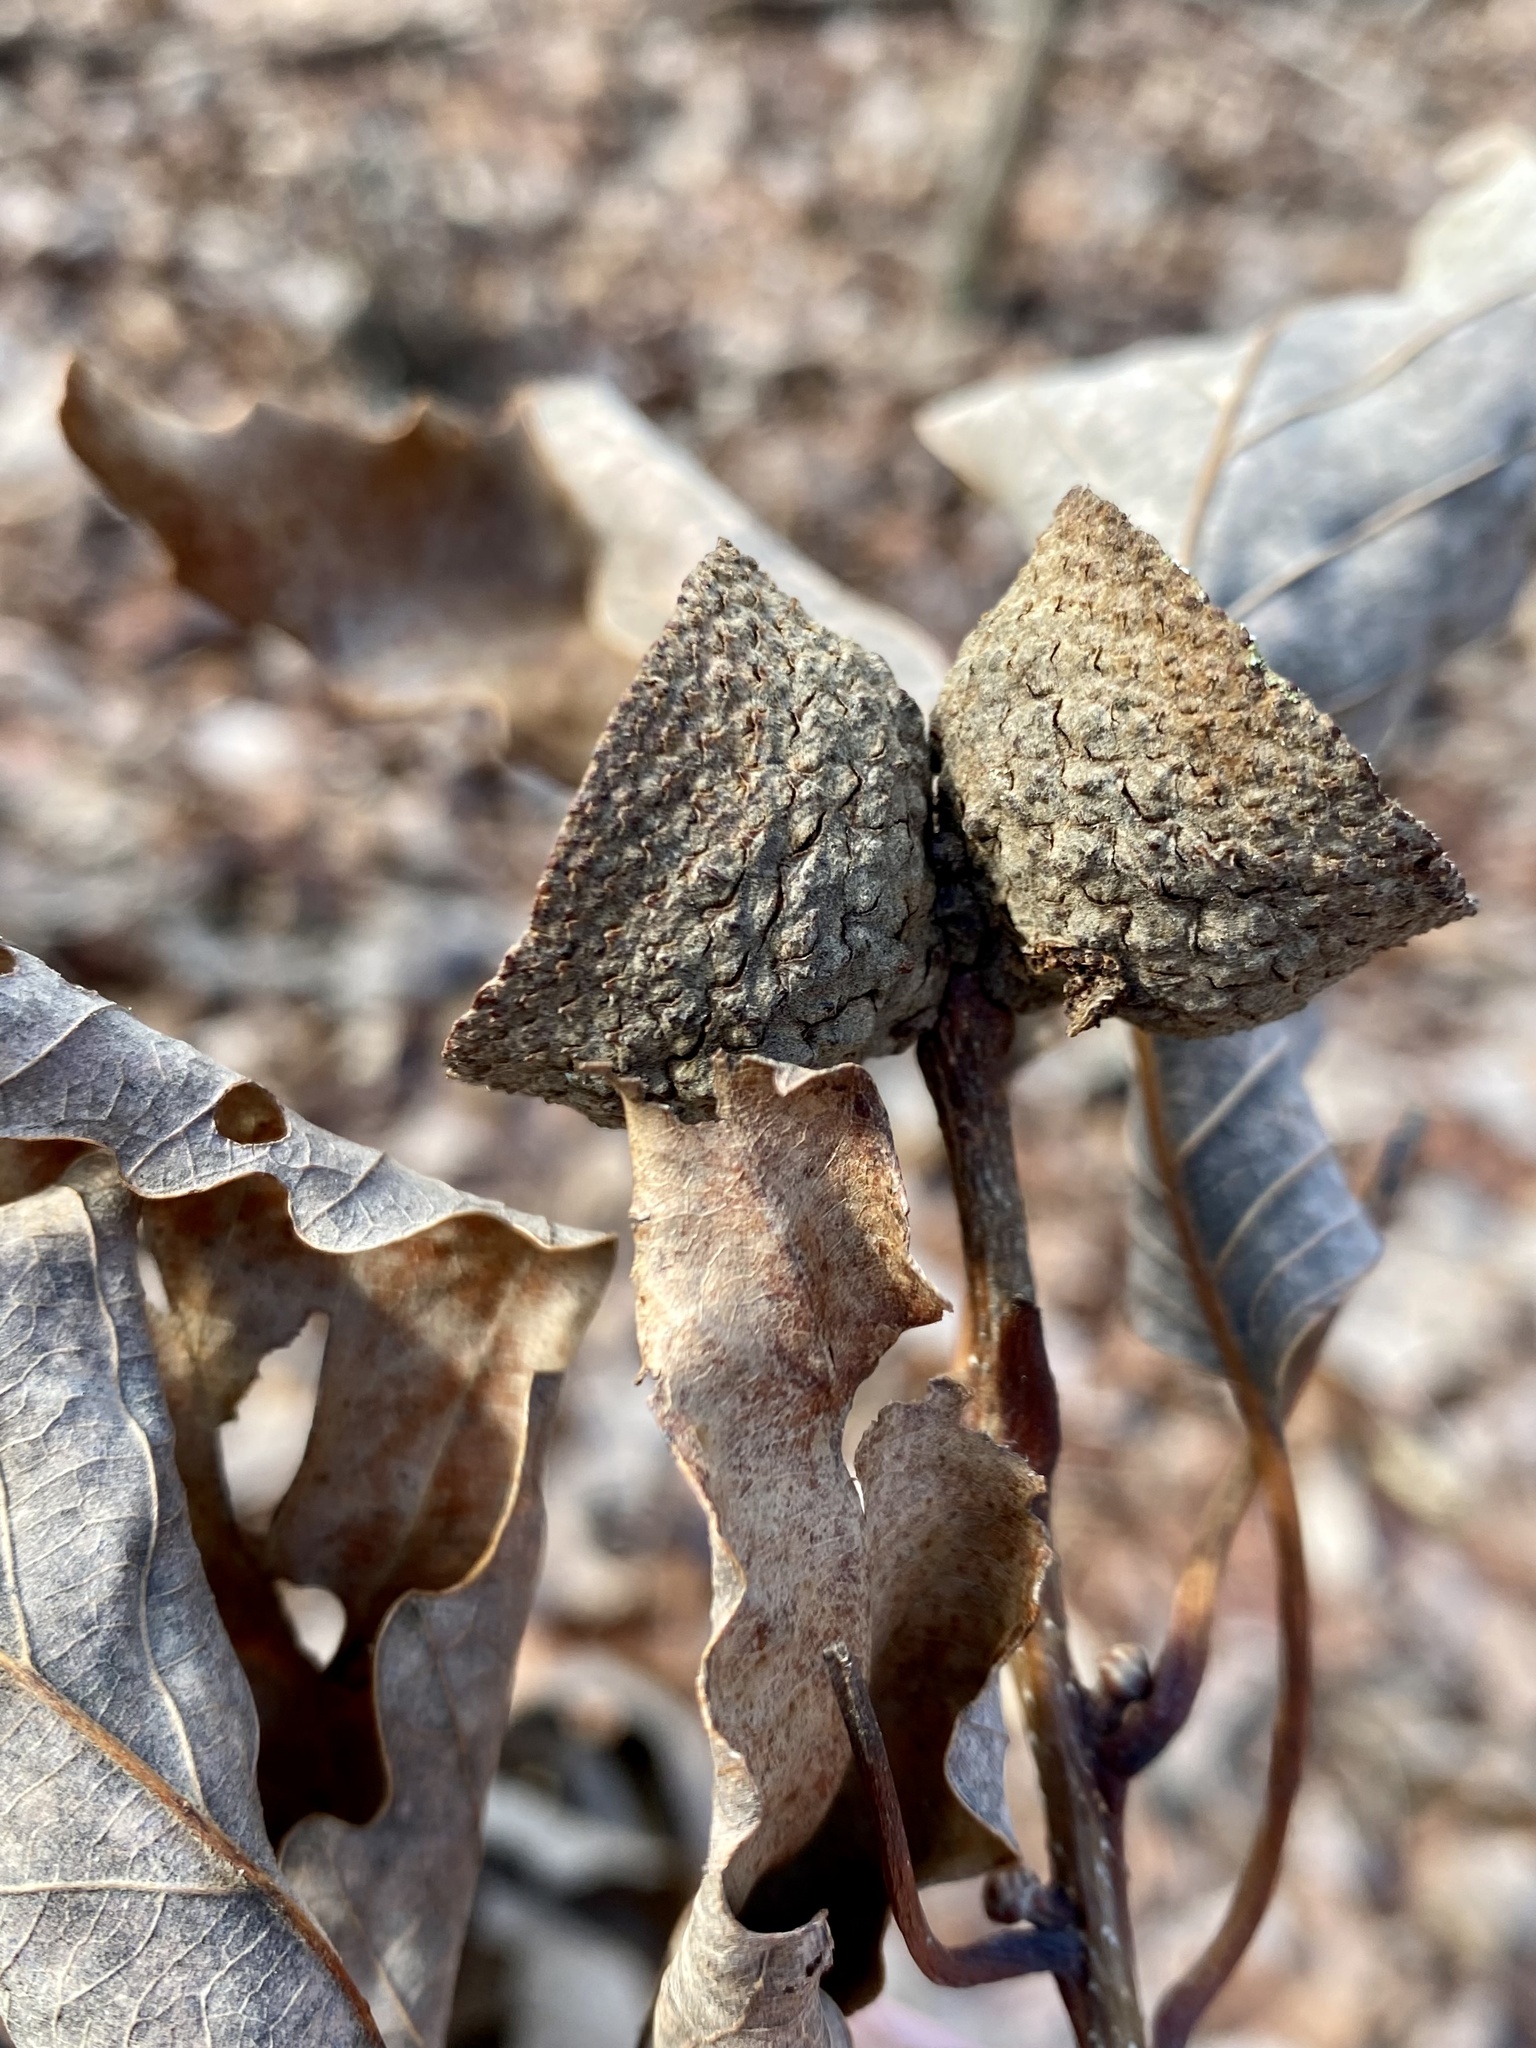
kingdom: Plantae
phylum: Tracheophyta
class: Magnoliopsida
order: Fagales
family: Fagaceae
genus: Quercus
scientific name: Quercus montana
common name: Chestnut oak
